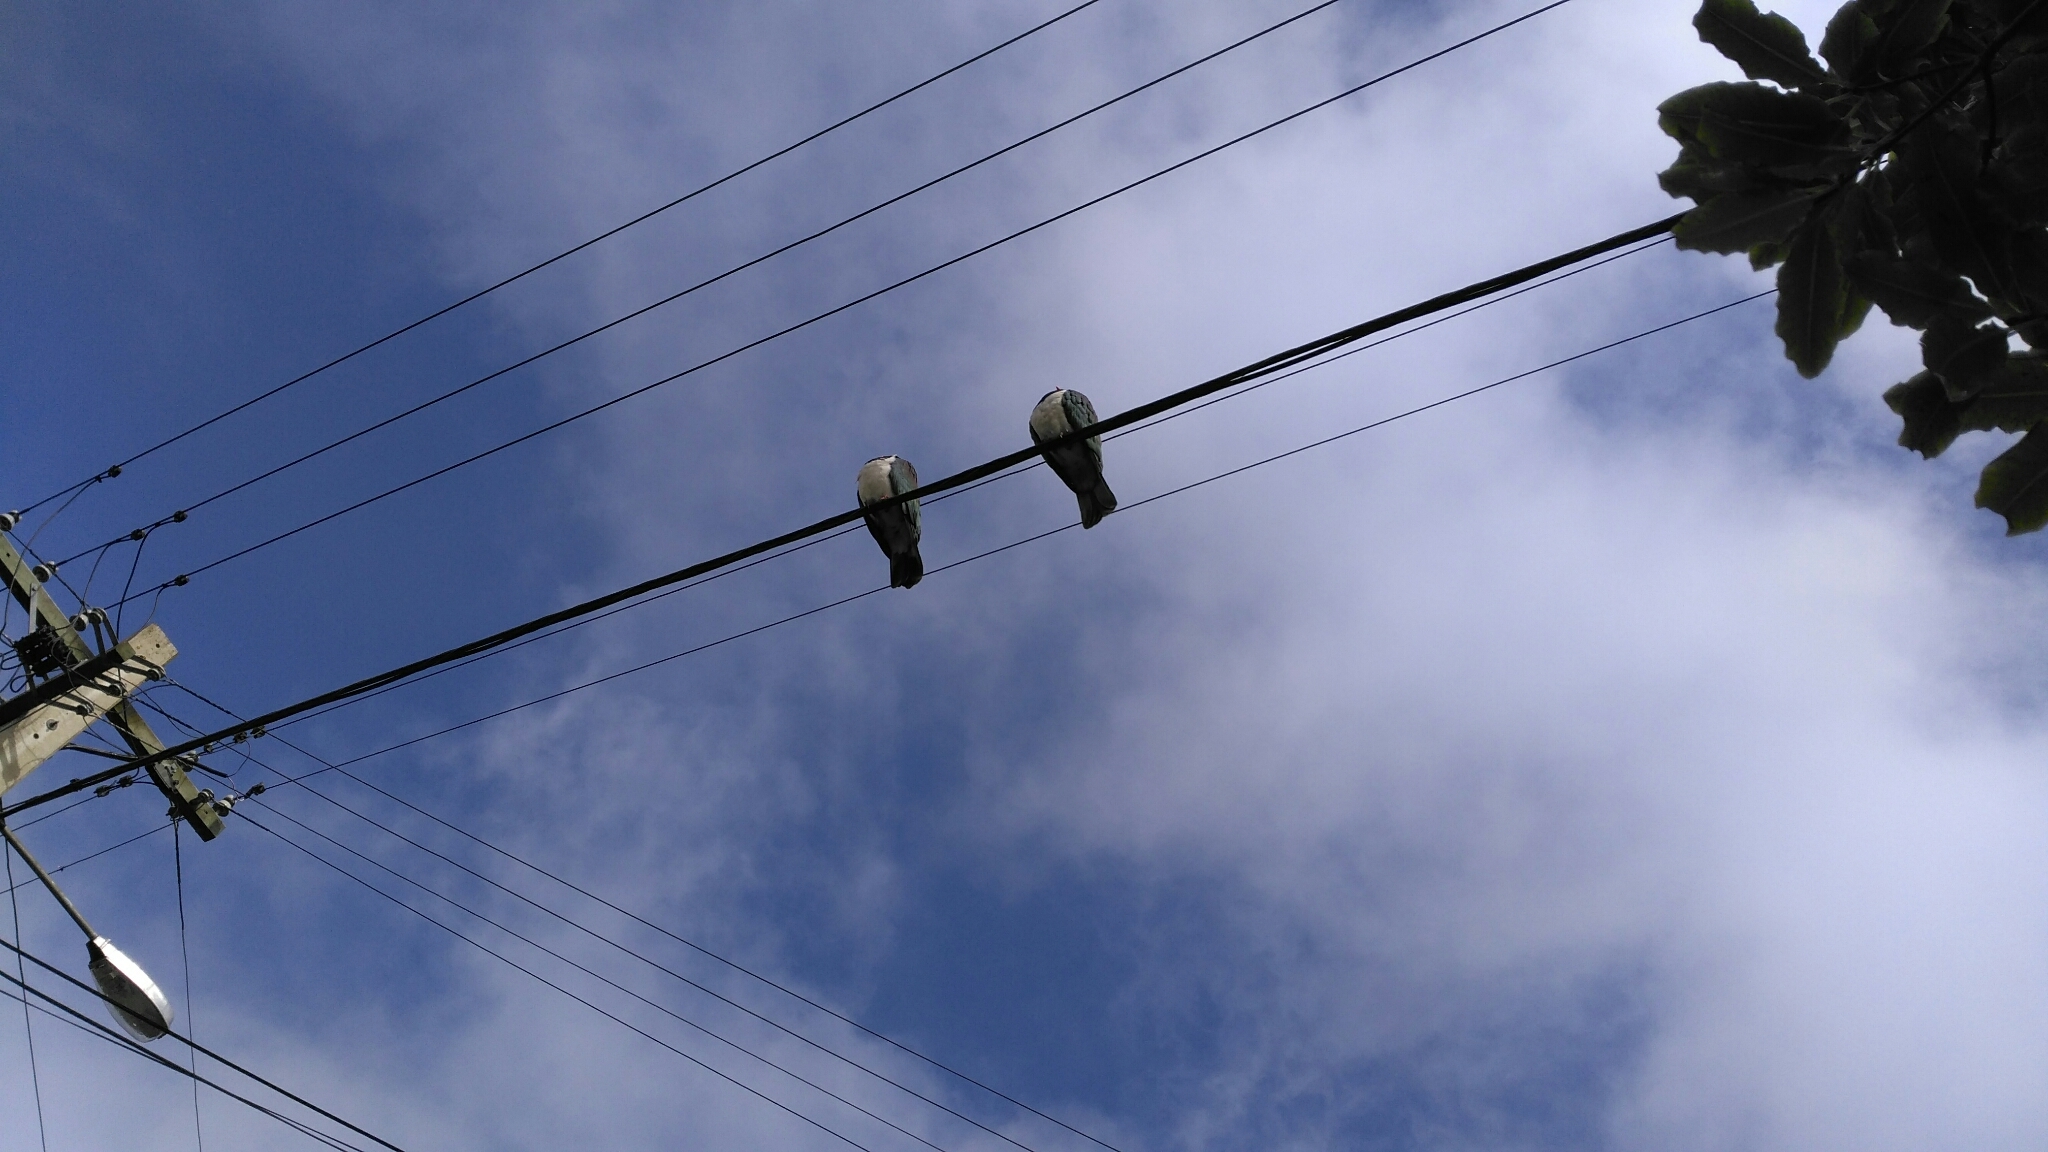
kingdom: Animalia
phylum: Chordata
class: Aves
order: Columbiformes
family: Columbidae
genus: Hemiphaga
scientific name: Hemiphaga novaeseelandiae
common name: New zealand pigeon
